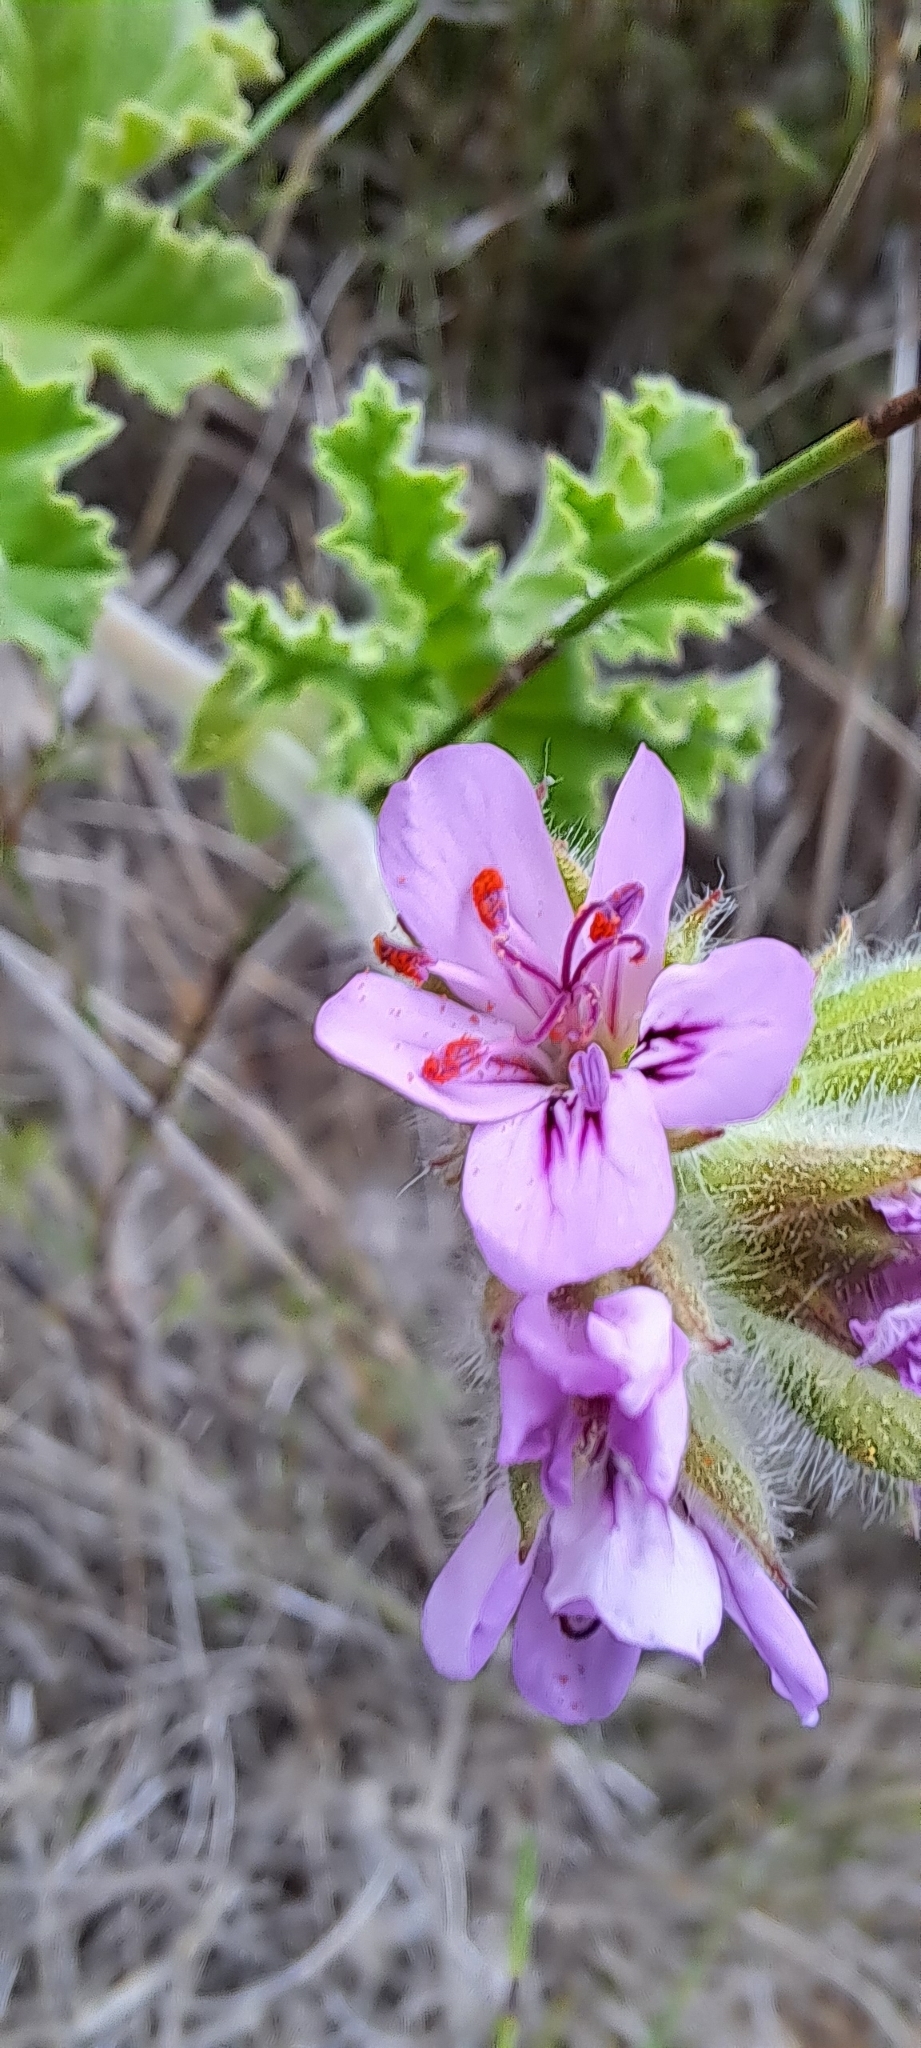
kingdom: Plantae
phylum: Tracheophyta
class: Magnoliopsida
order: Geraniales
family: Geraniaceae
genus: Pelargonium
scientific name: Pelargonium capitatum
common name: Rose scented geranium
